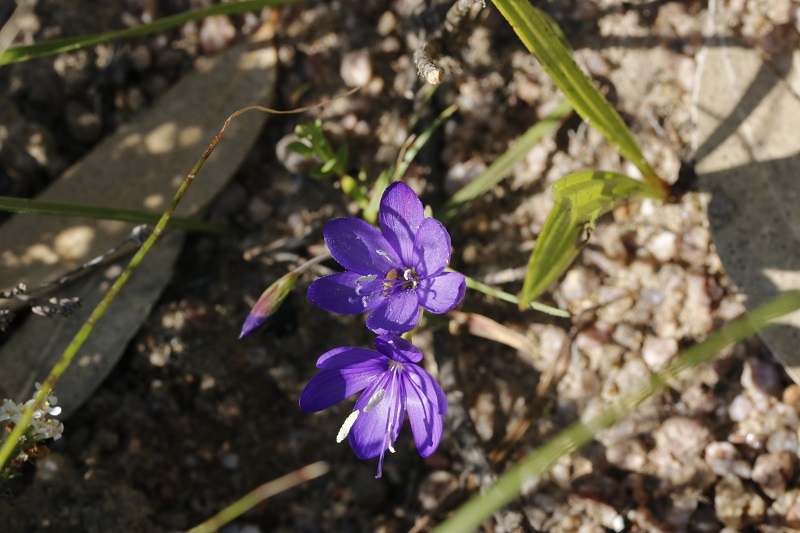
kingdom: Plantae
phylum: Tracheophyta
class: Liliopsida
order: Asparagales
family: Iridaceae
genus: Geissorhiza
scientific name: Geissorhiza aspera
